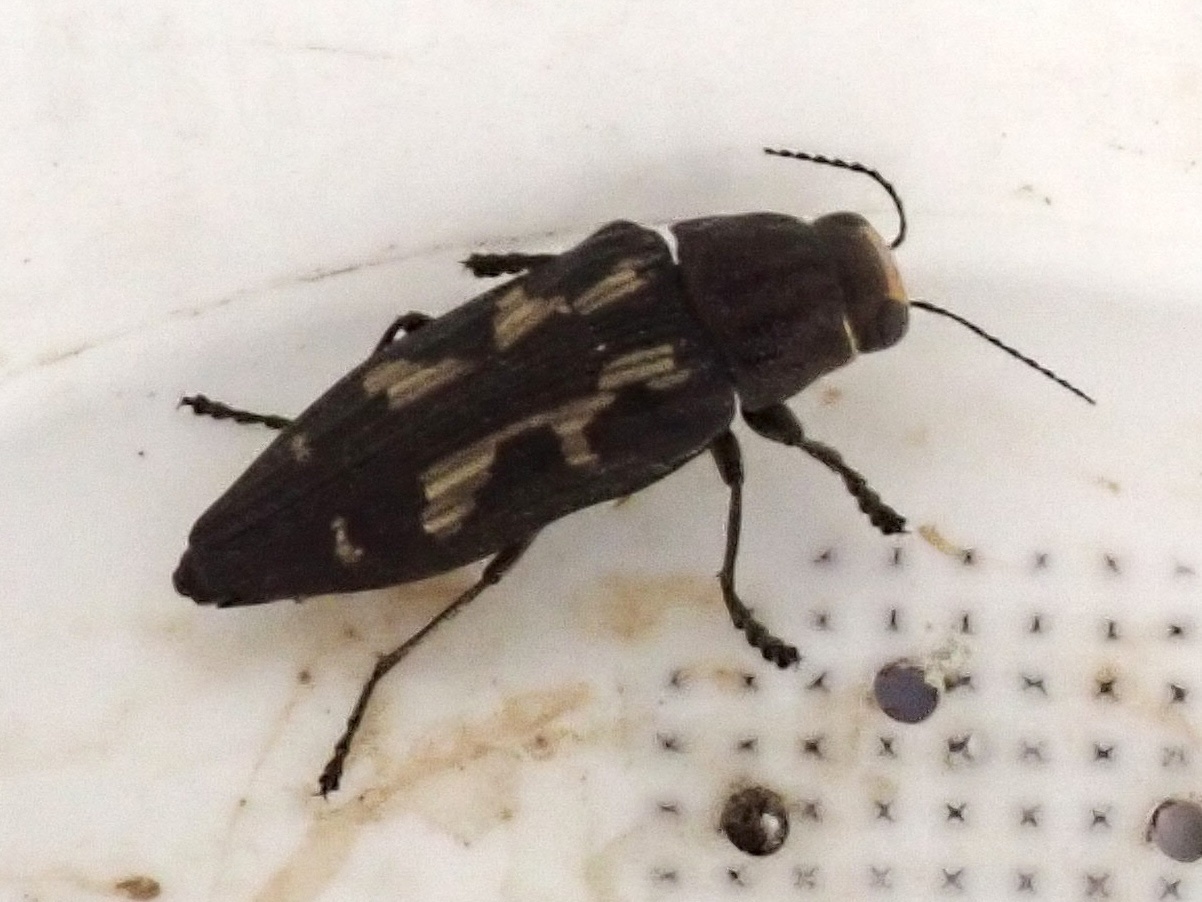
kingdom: Animalia
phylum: Arthropoda
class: Insecta
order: Coleoptera
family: Buprestidae
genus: Buprestis
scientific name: Buprestis laeviventris
